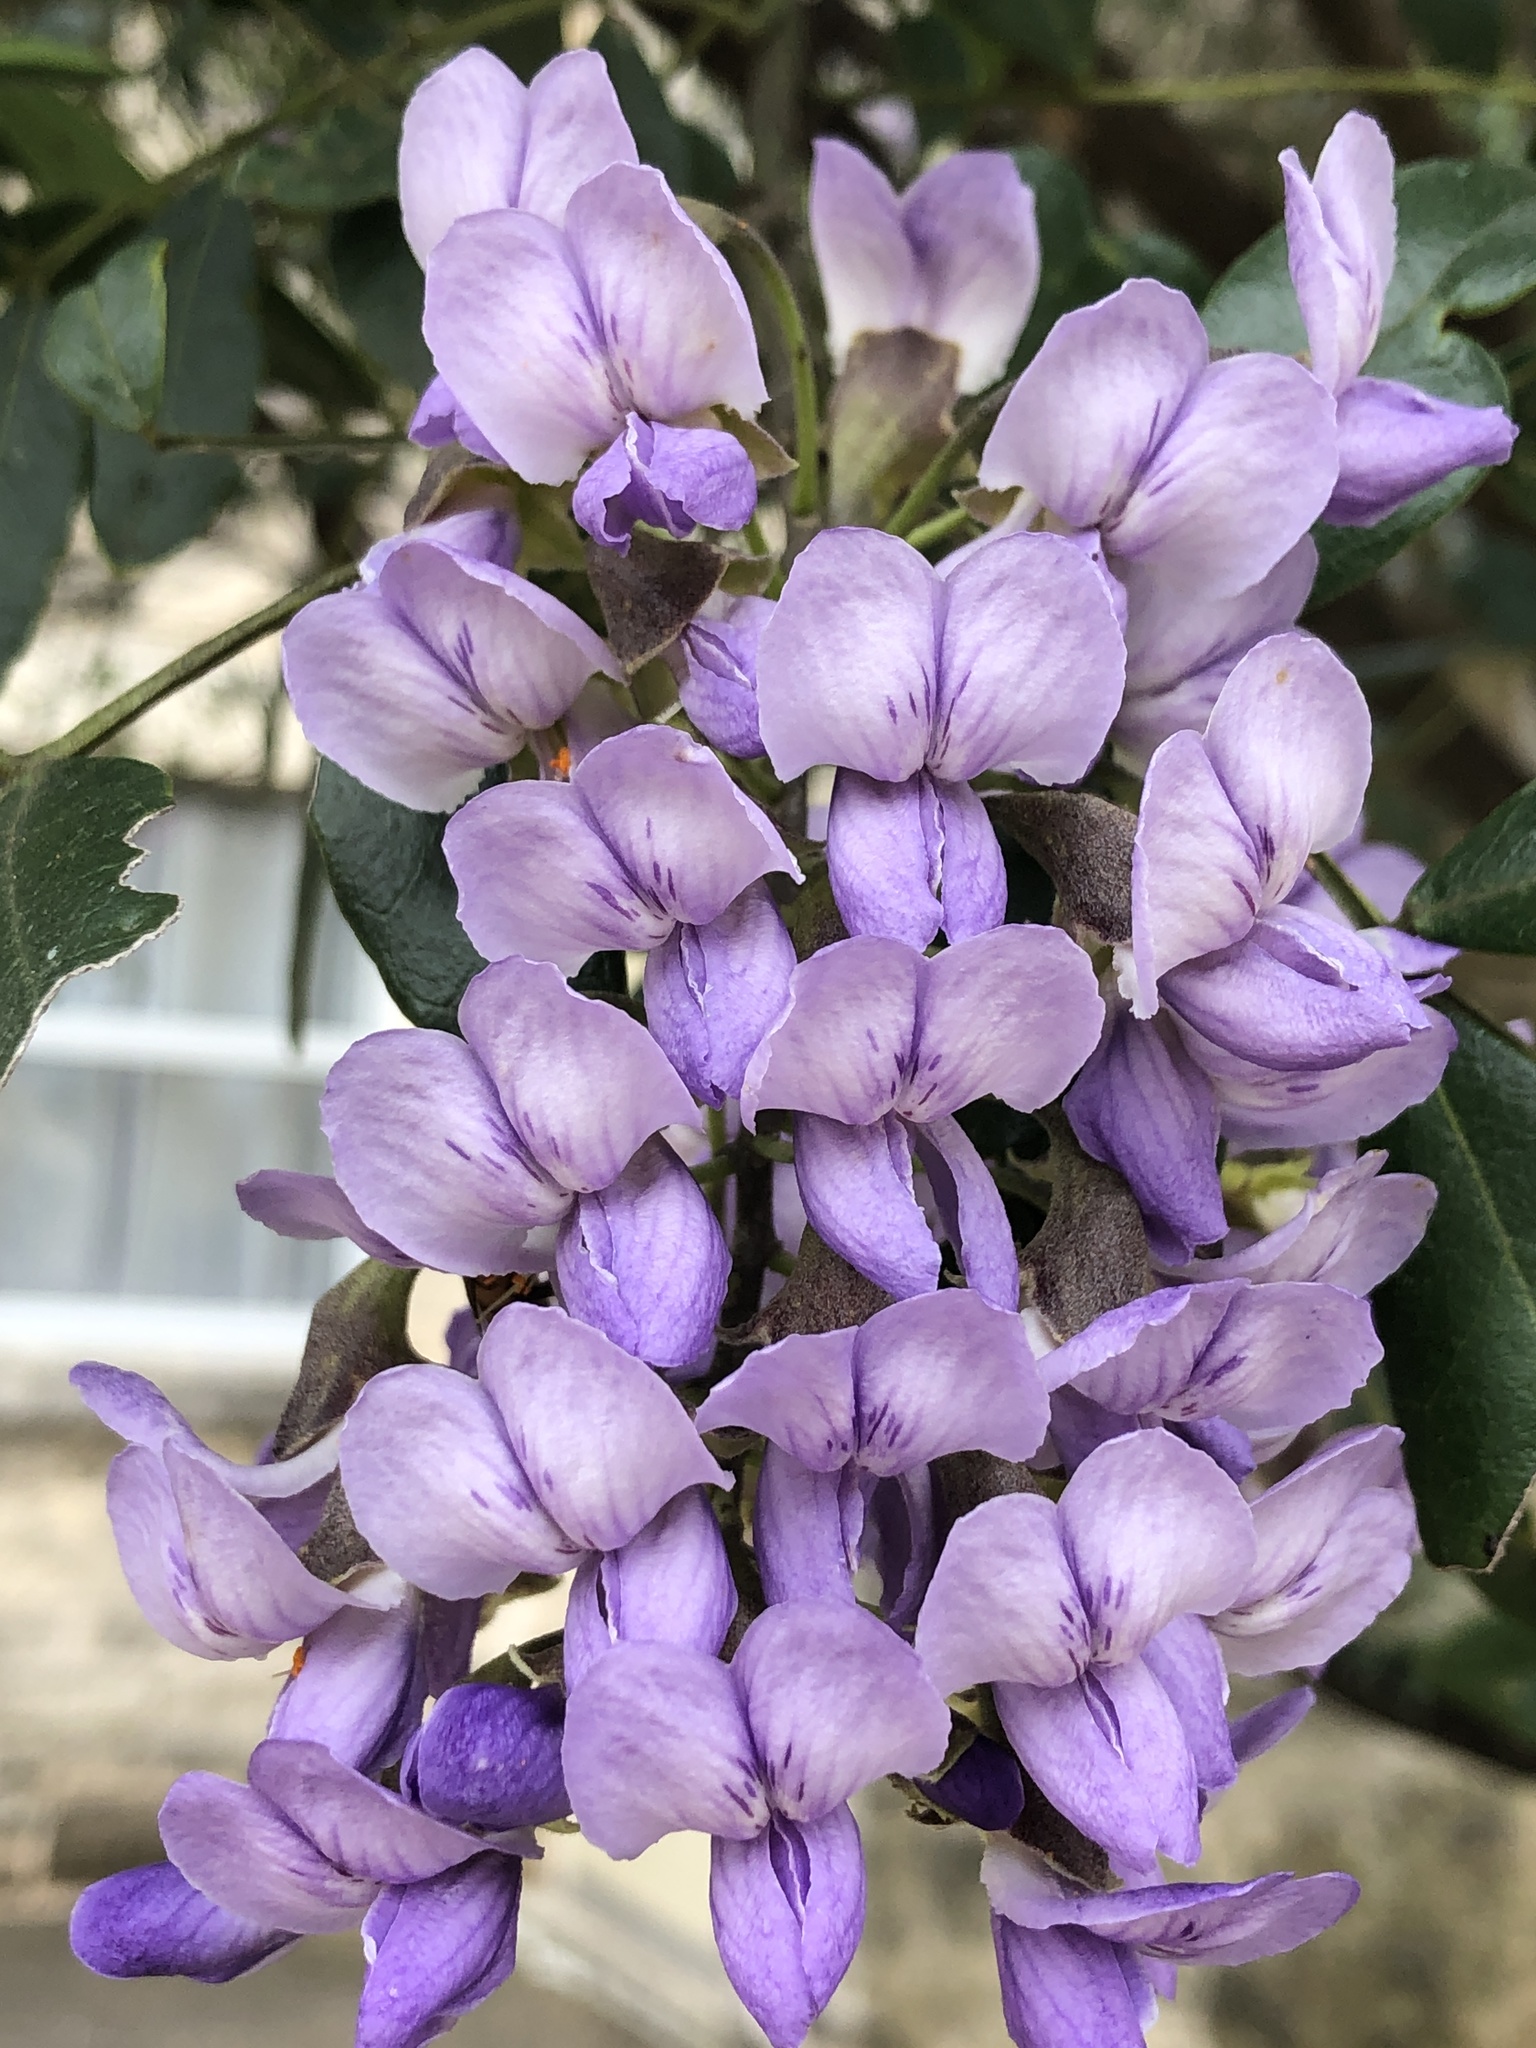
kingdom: Plantae
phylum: Tracheophyta
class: Magnoliopsida
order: Fabales
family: Fabaceae
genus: Dermatophyllum
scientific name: Dermatophyllum secundiflorum
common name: Texas-mountain-laurel
